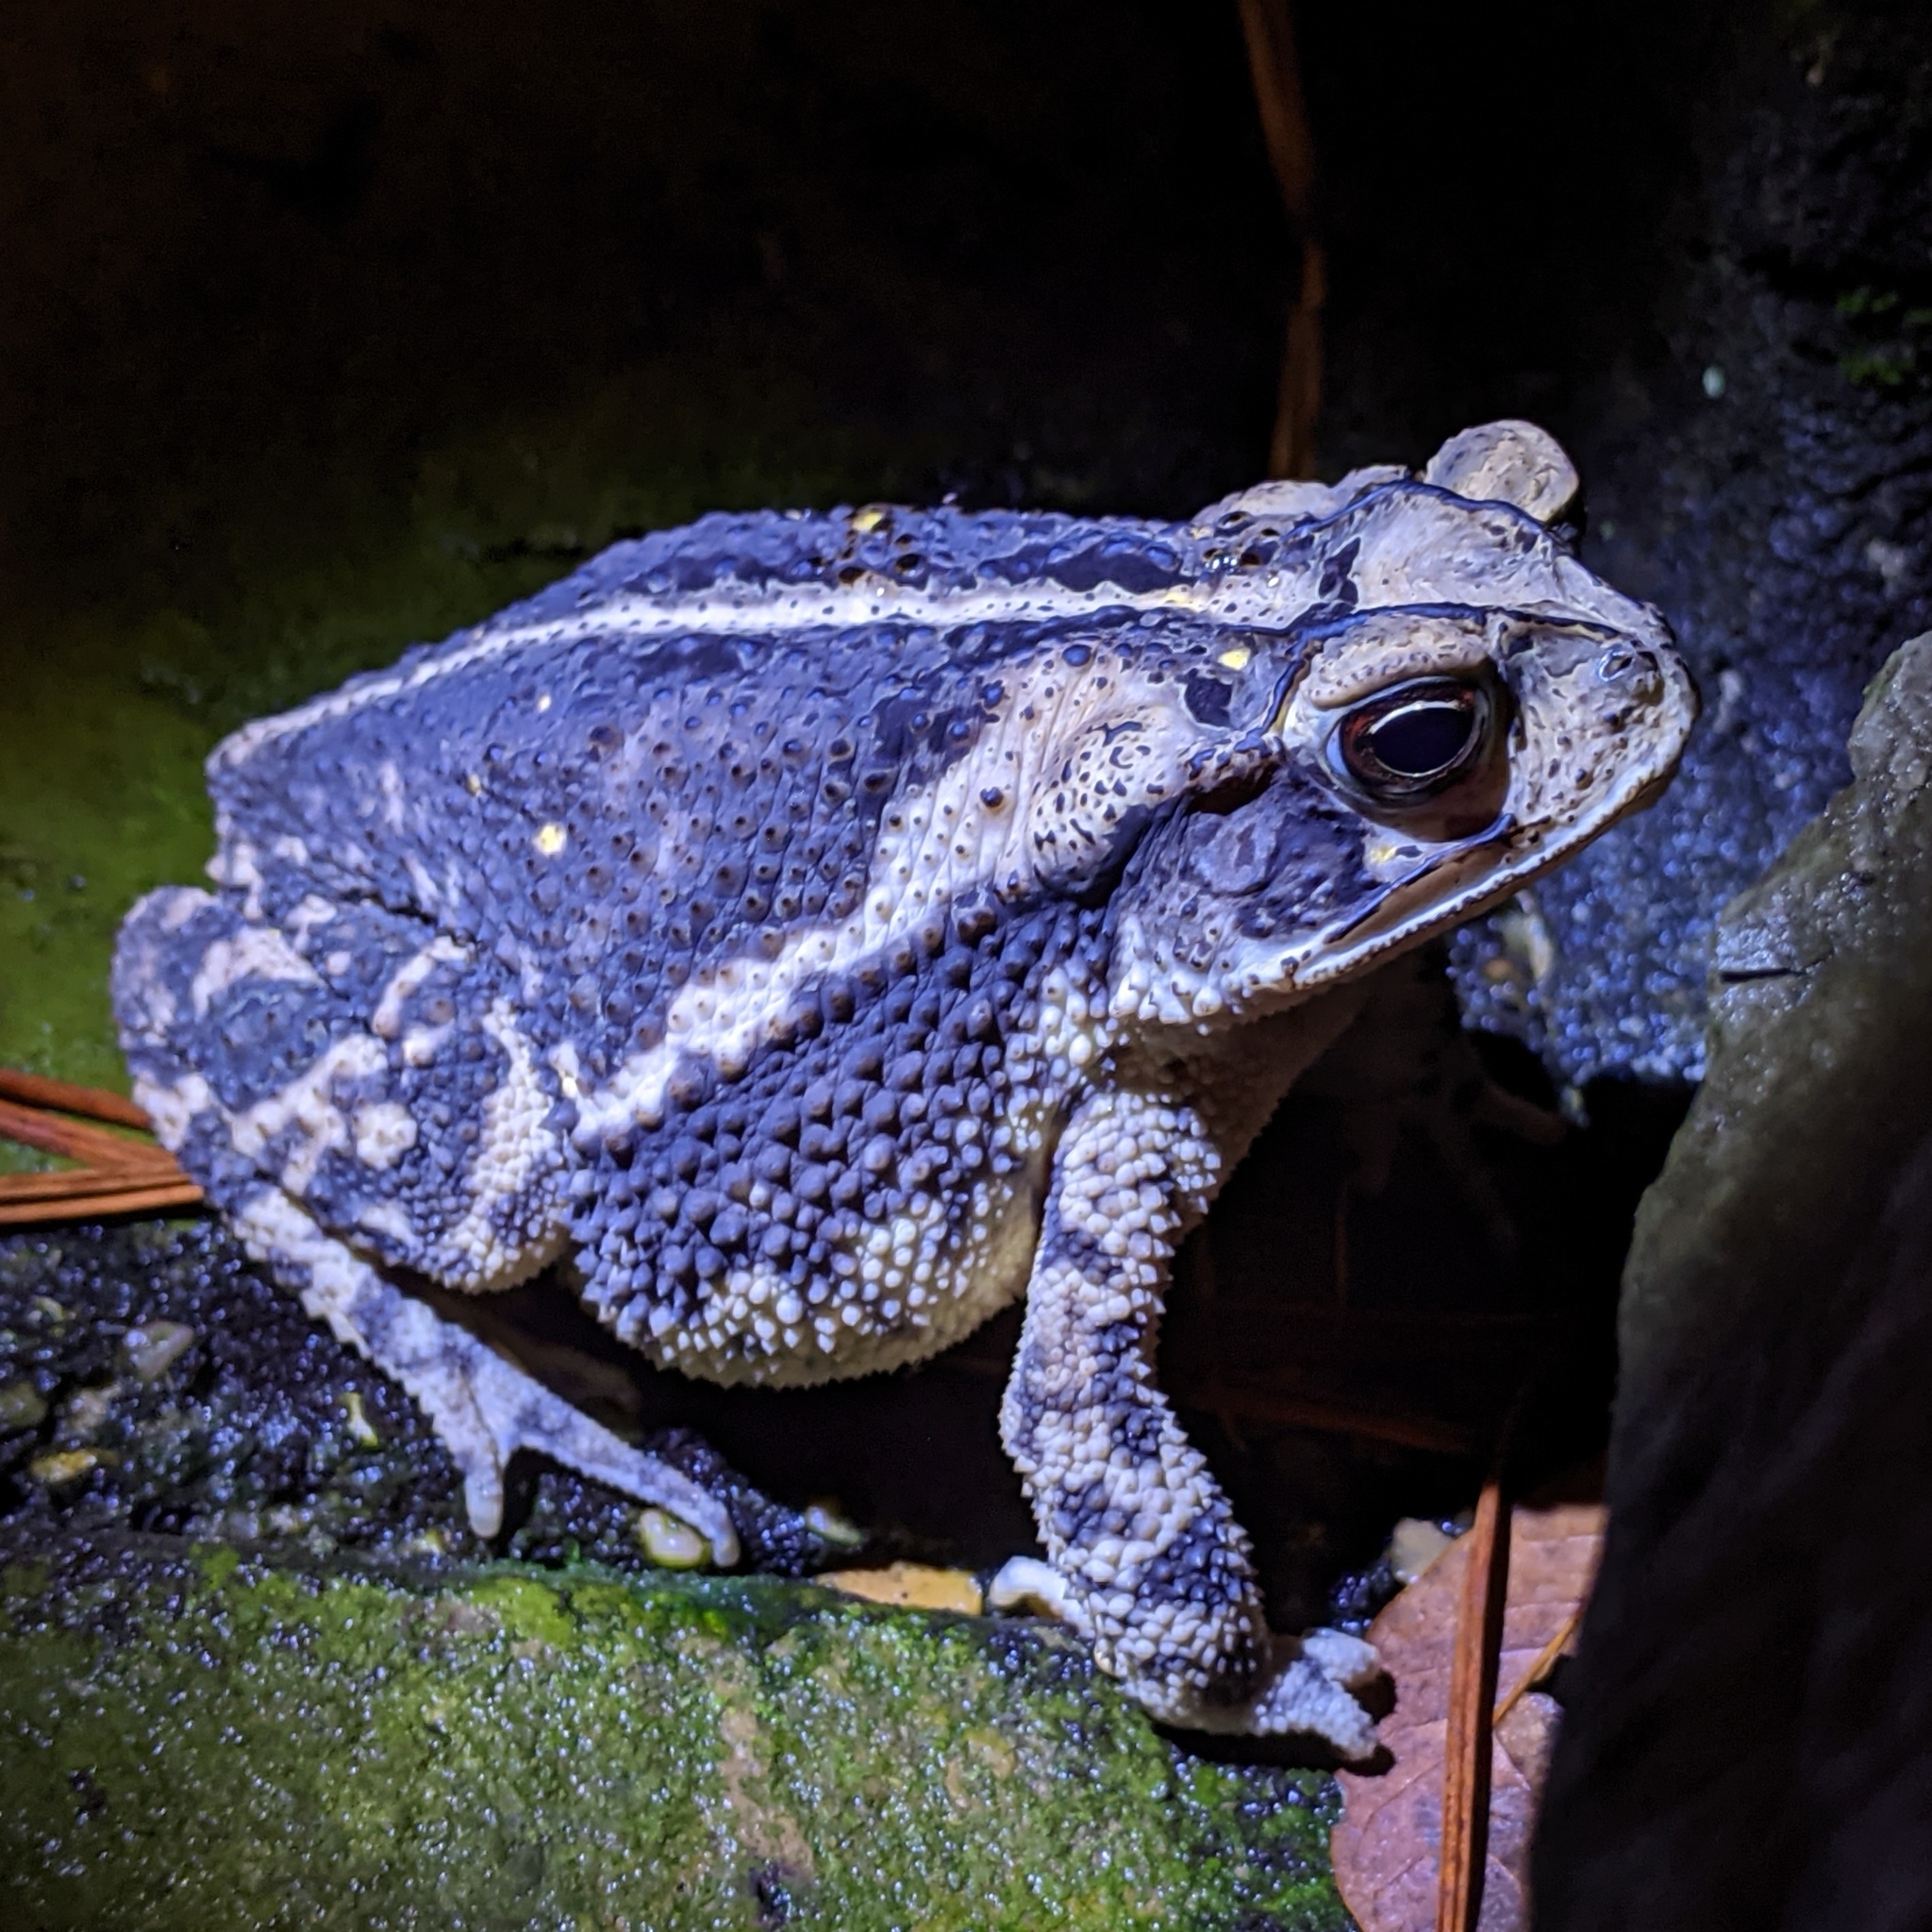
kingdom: Animalia
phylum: Chordata
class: Amphibia
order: Anura
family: Bufonidae
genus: Incilius
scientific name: Incilius nebulifer
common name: Gulf coast toad
